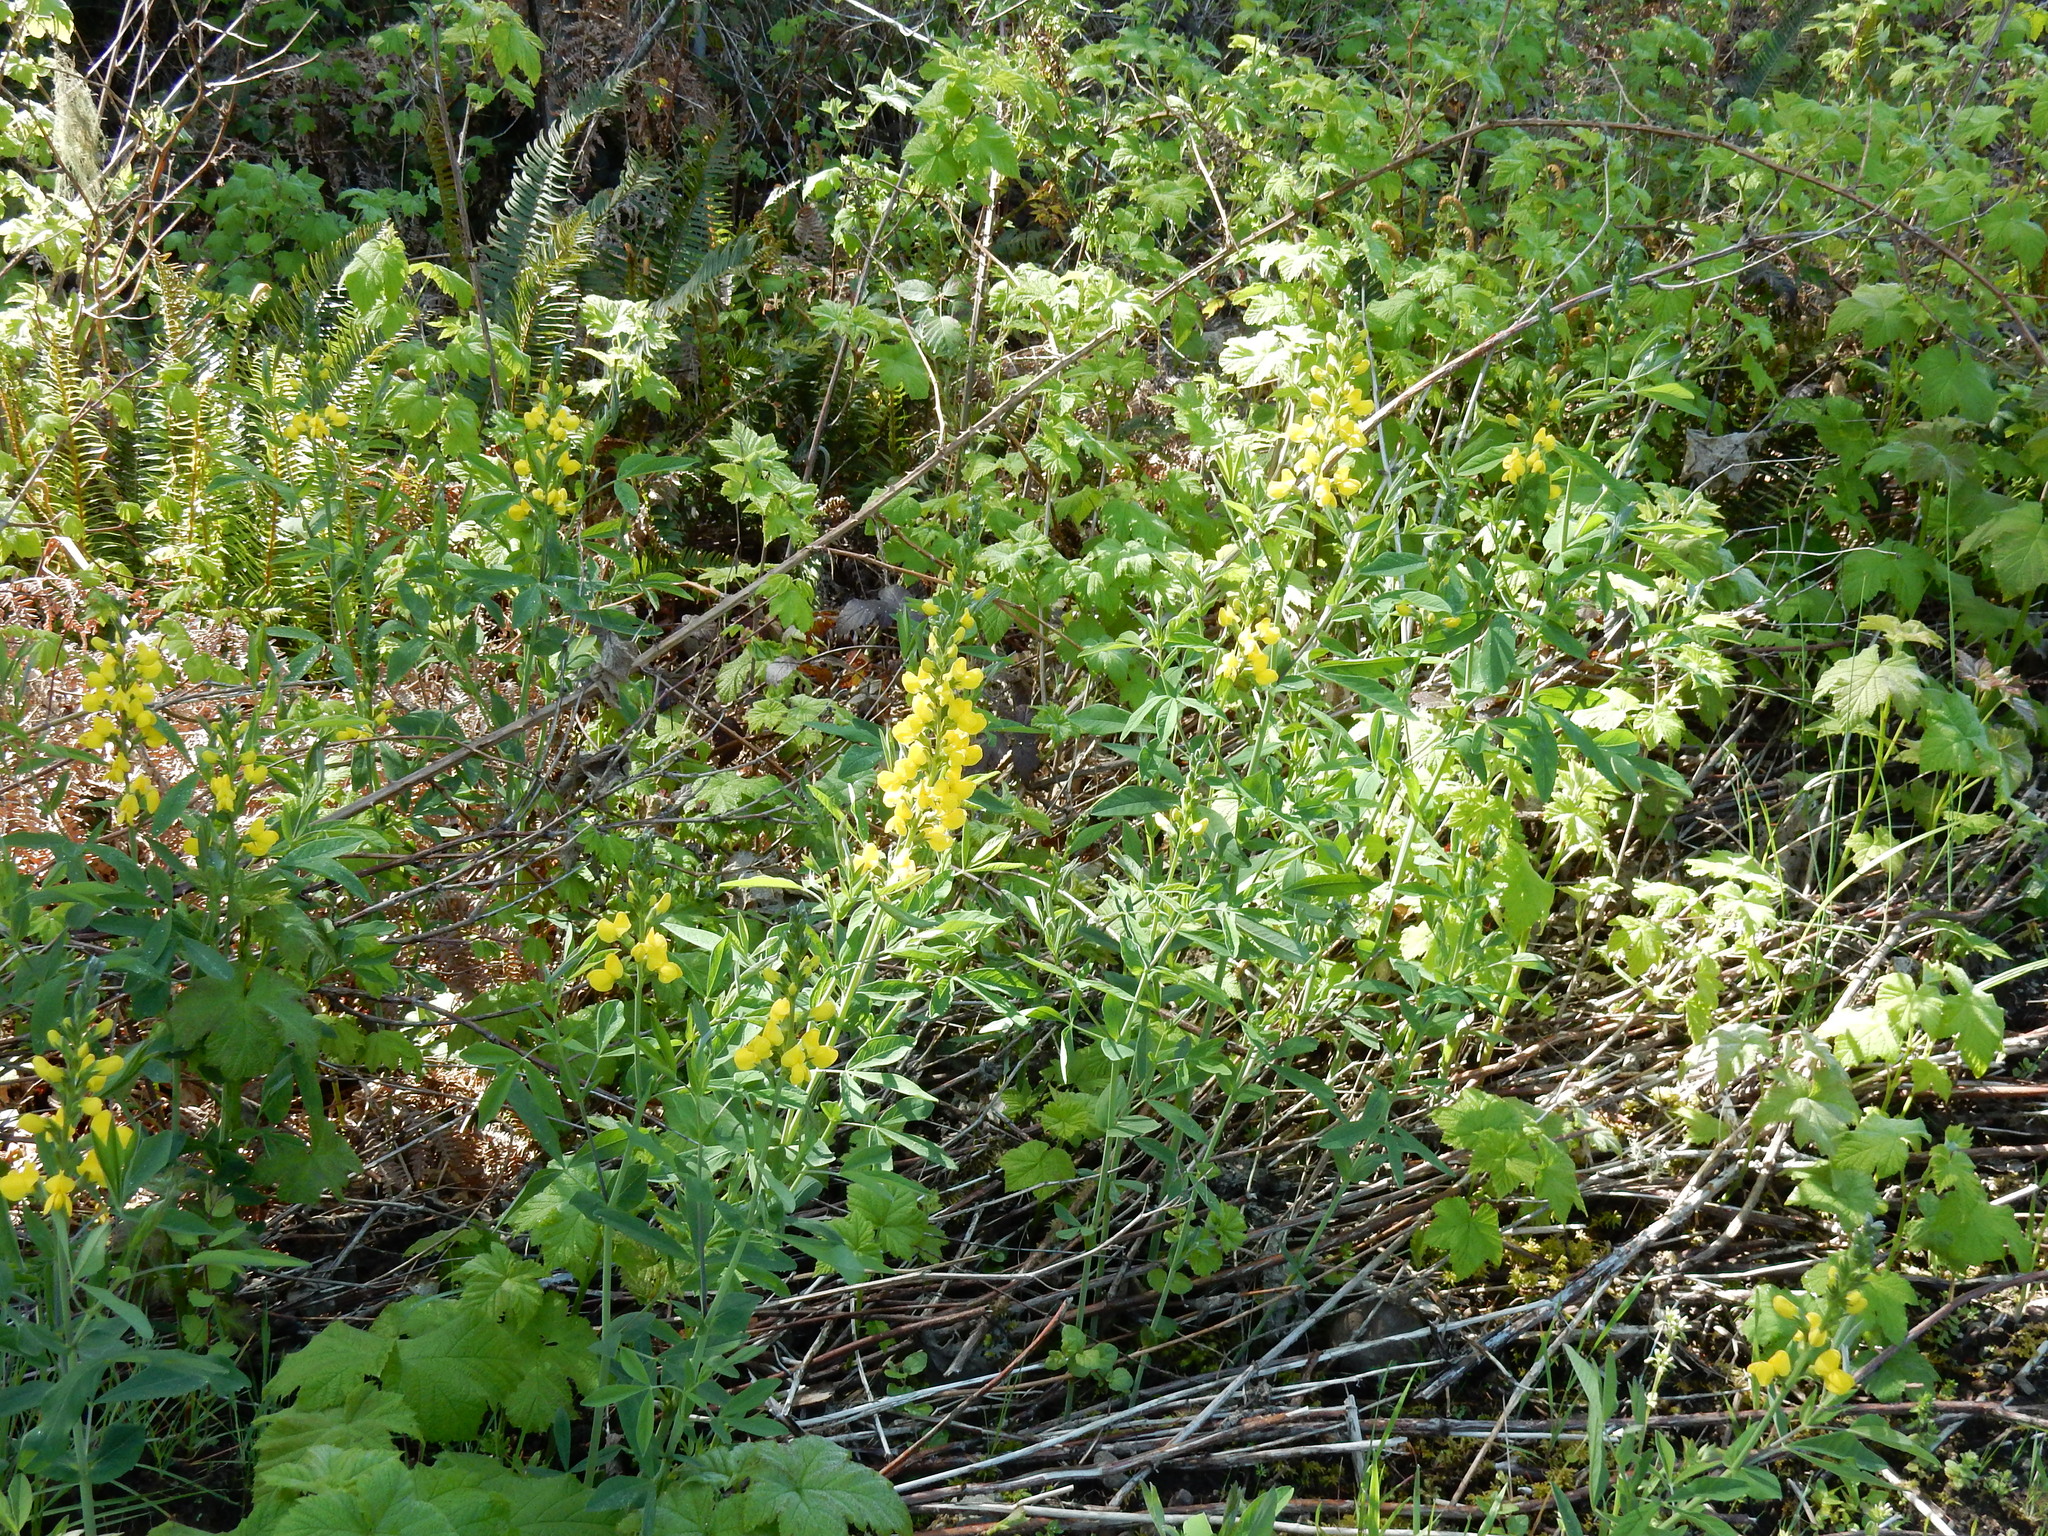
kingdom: Plantae
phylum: Tracheophyta
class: Magnoliopsida
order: Fabales
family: Fabaceae
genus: Thermopsis
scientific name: Thermopsis gracilis
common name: Slender golden-banner
